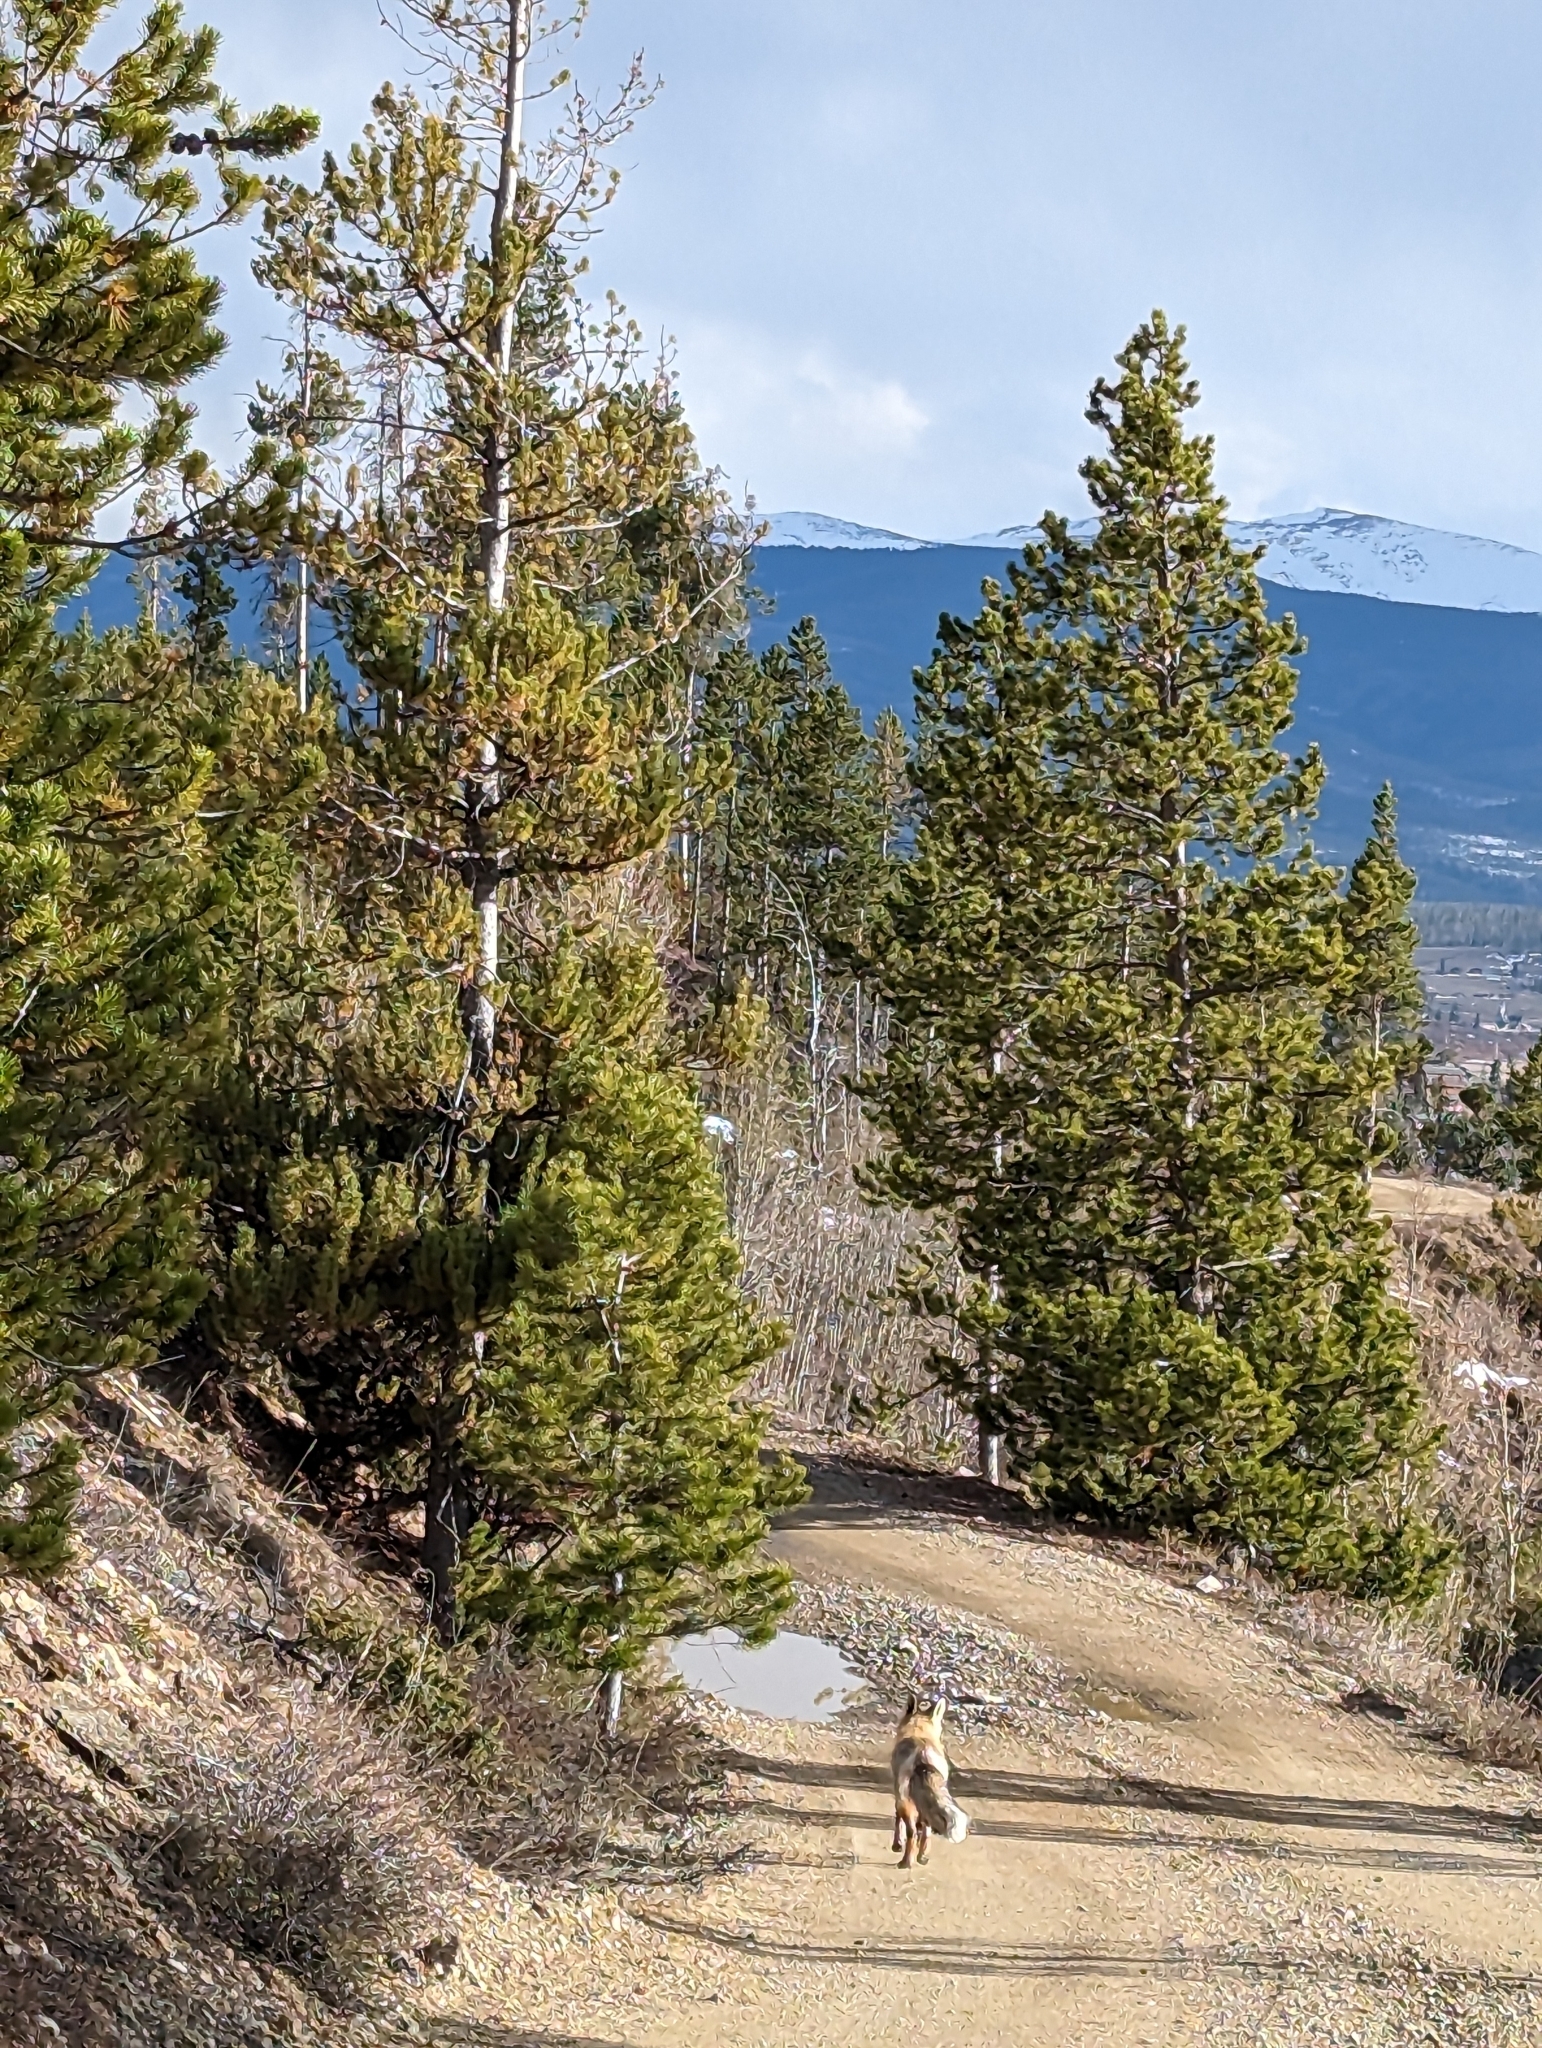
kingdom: Animalia
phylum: Chordata
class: Mammalia
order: Carnivora
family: Canidae
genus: Vulpes
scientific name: Vulpes vulpes
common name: Red fox
